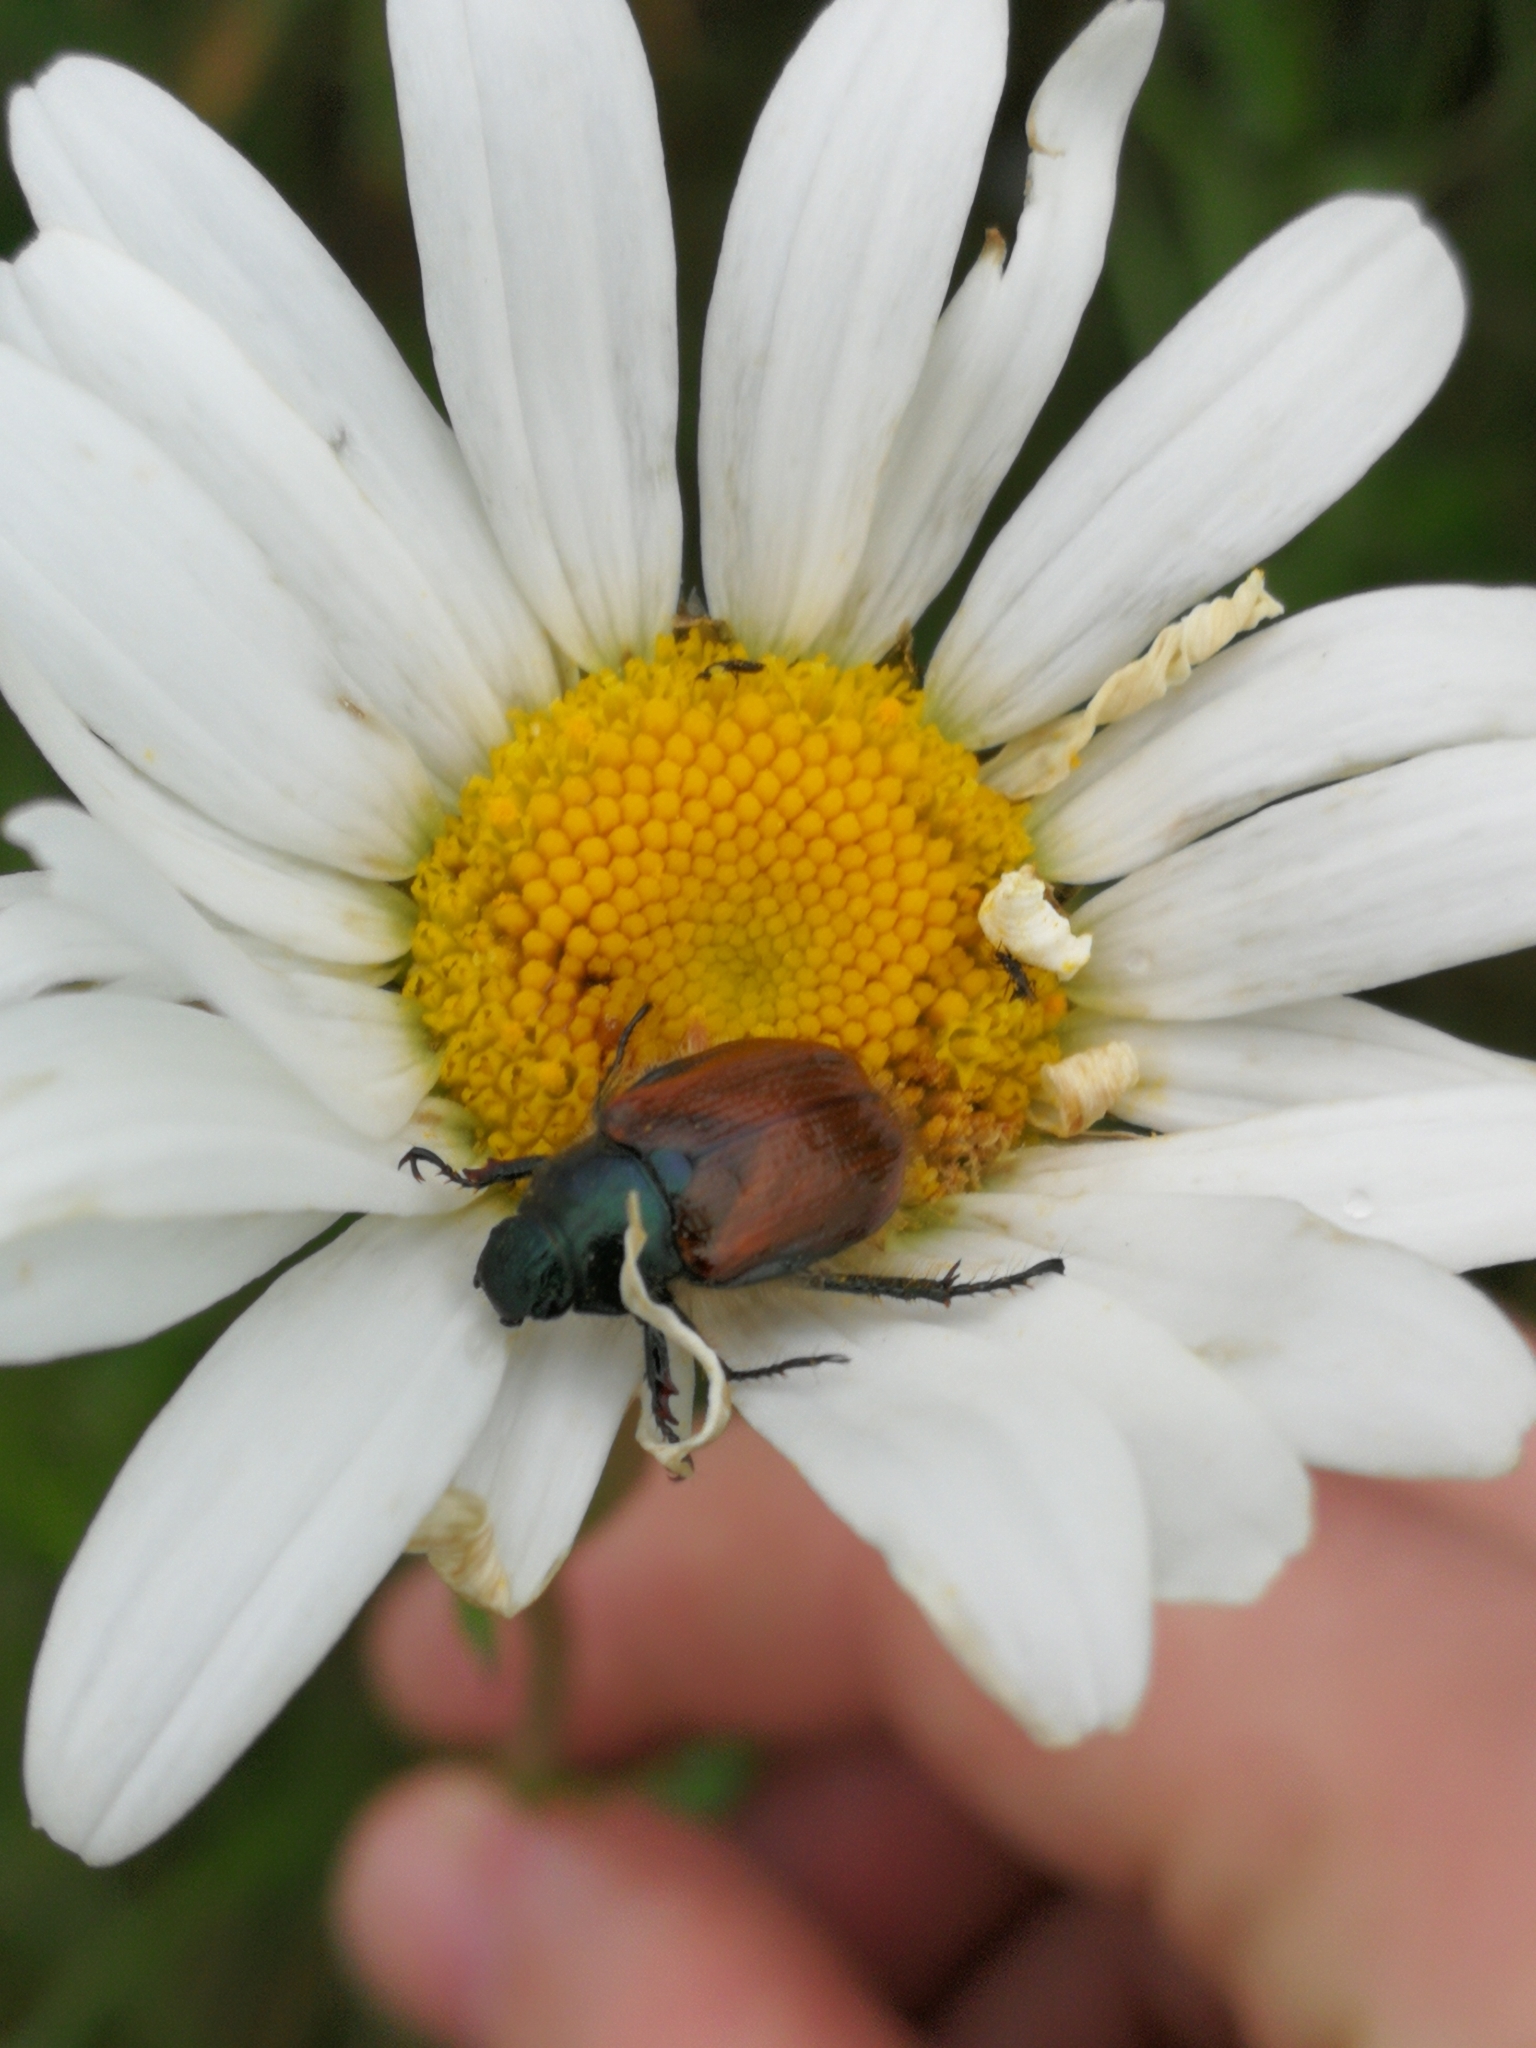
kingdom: Animalia
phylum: Arthropoda
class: Insecta
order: Coleoptera
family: Scarabaeidae
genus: Phyllopertha
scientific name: Phyllopertha horticola
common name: Garden chafer
